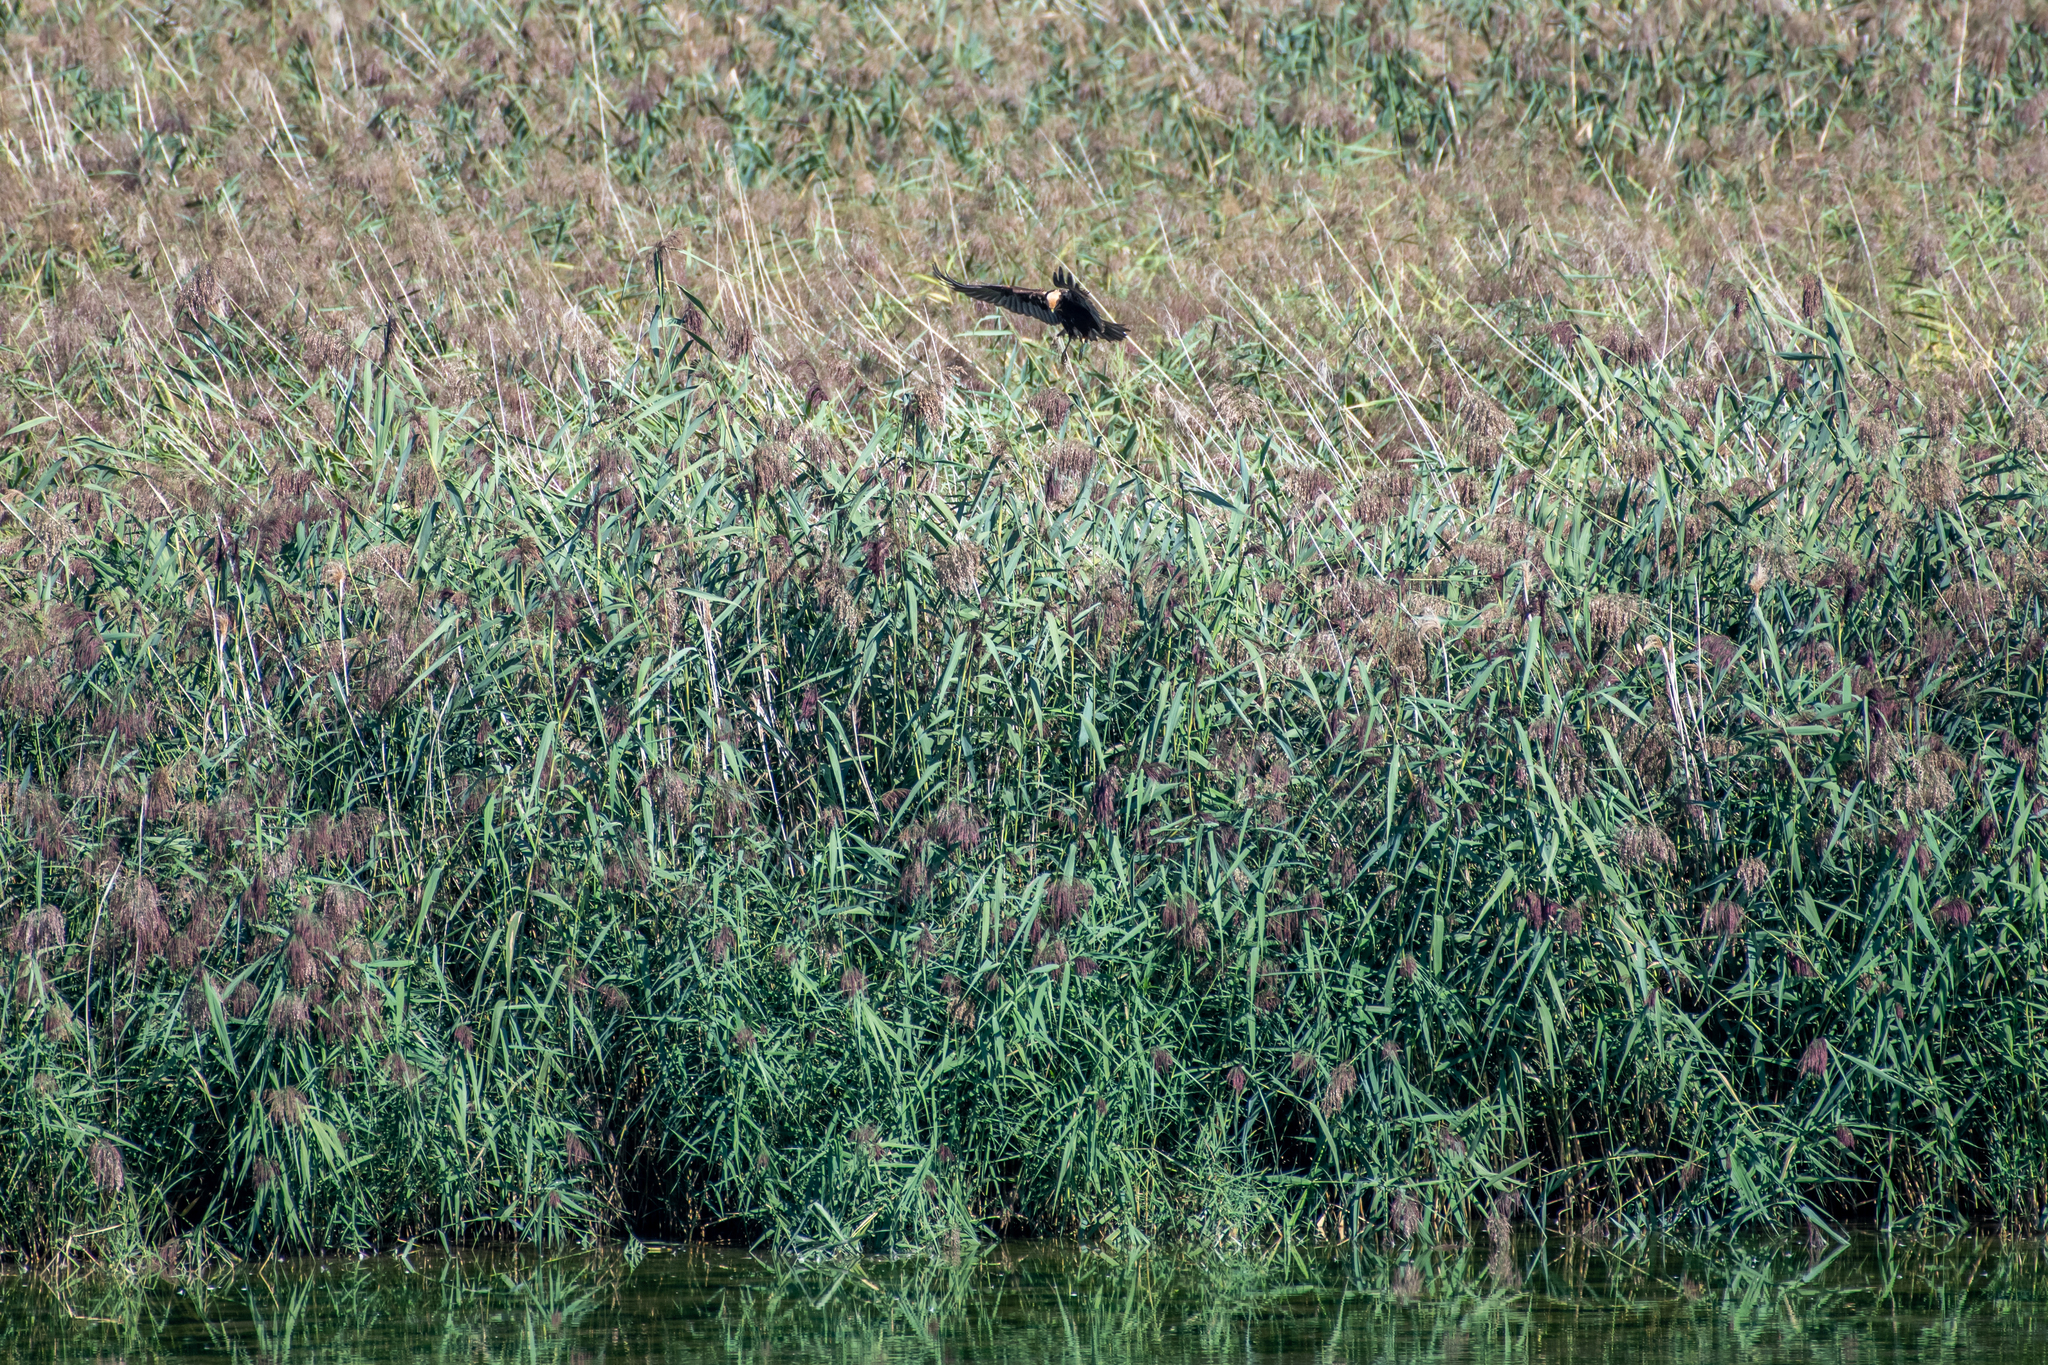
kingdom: Animalia
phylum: Chordata
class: Aves
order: Accipitriformes
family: Accipitridae
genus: Circus
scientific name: Circus aeruginosus
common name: Western marsh harrier
